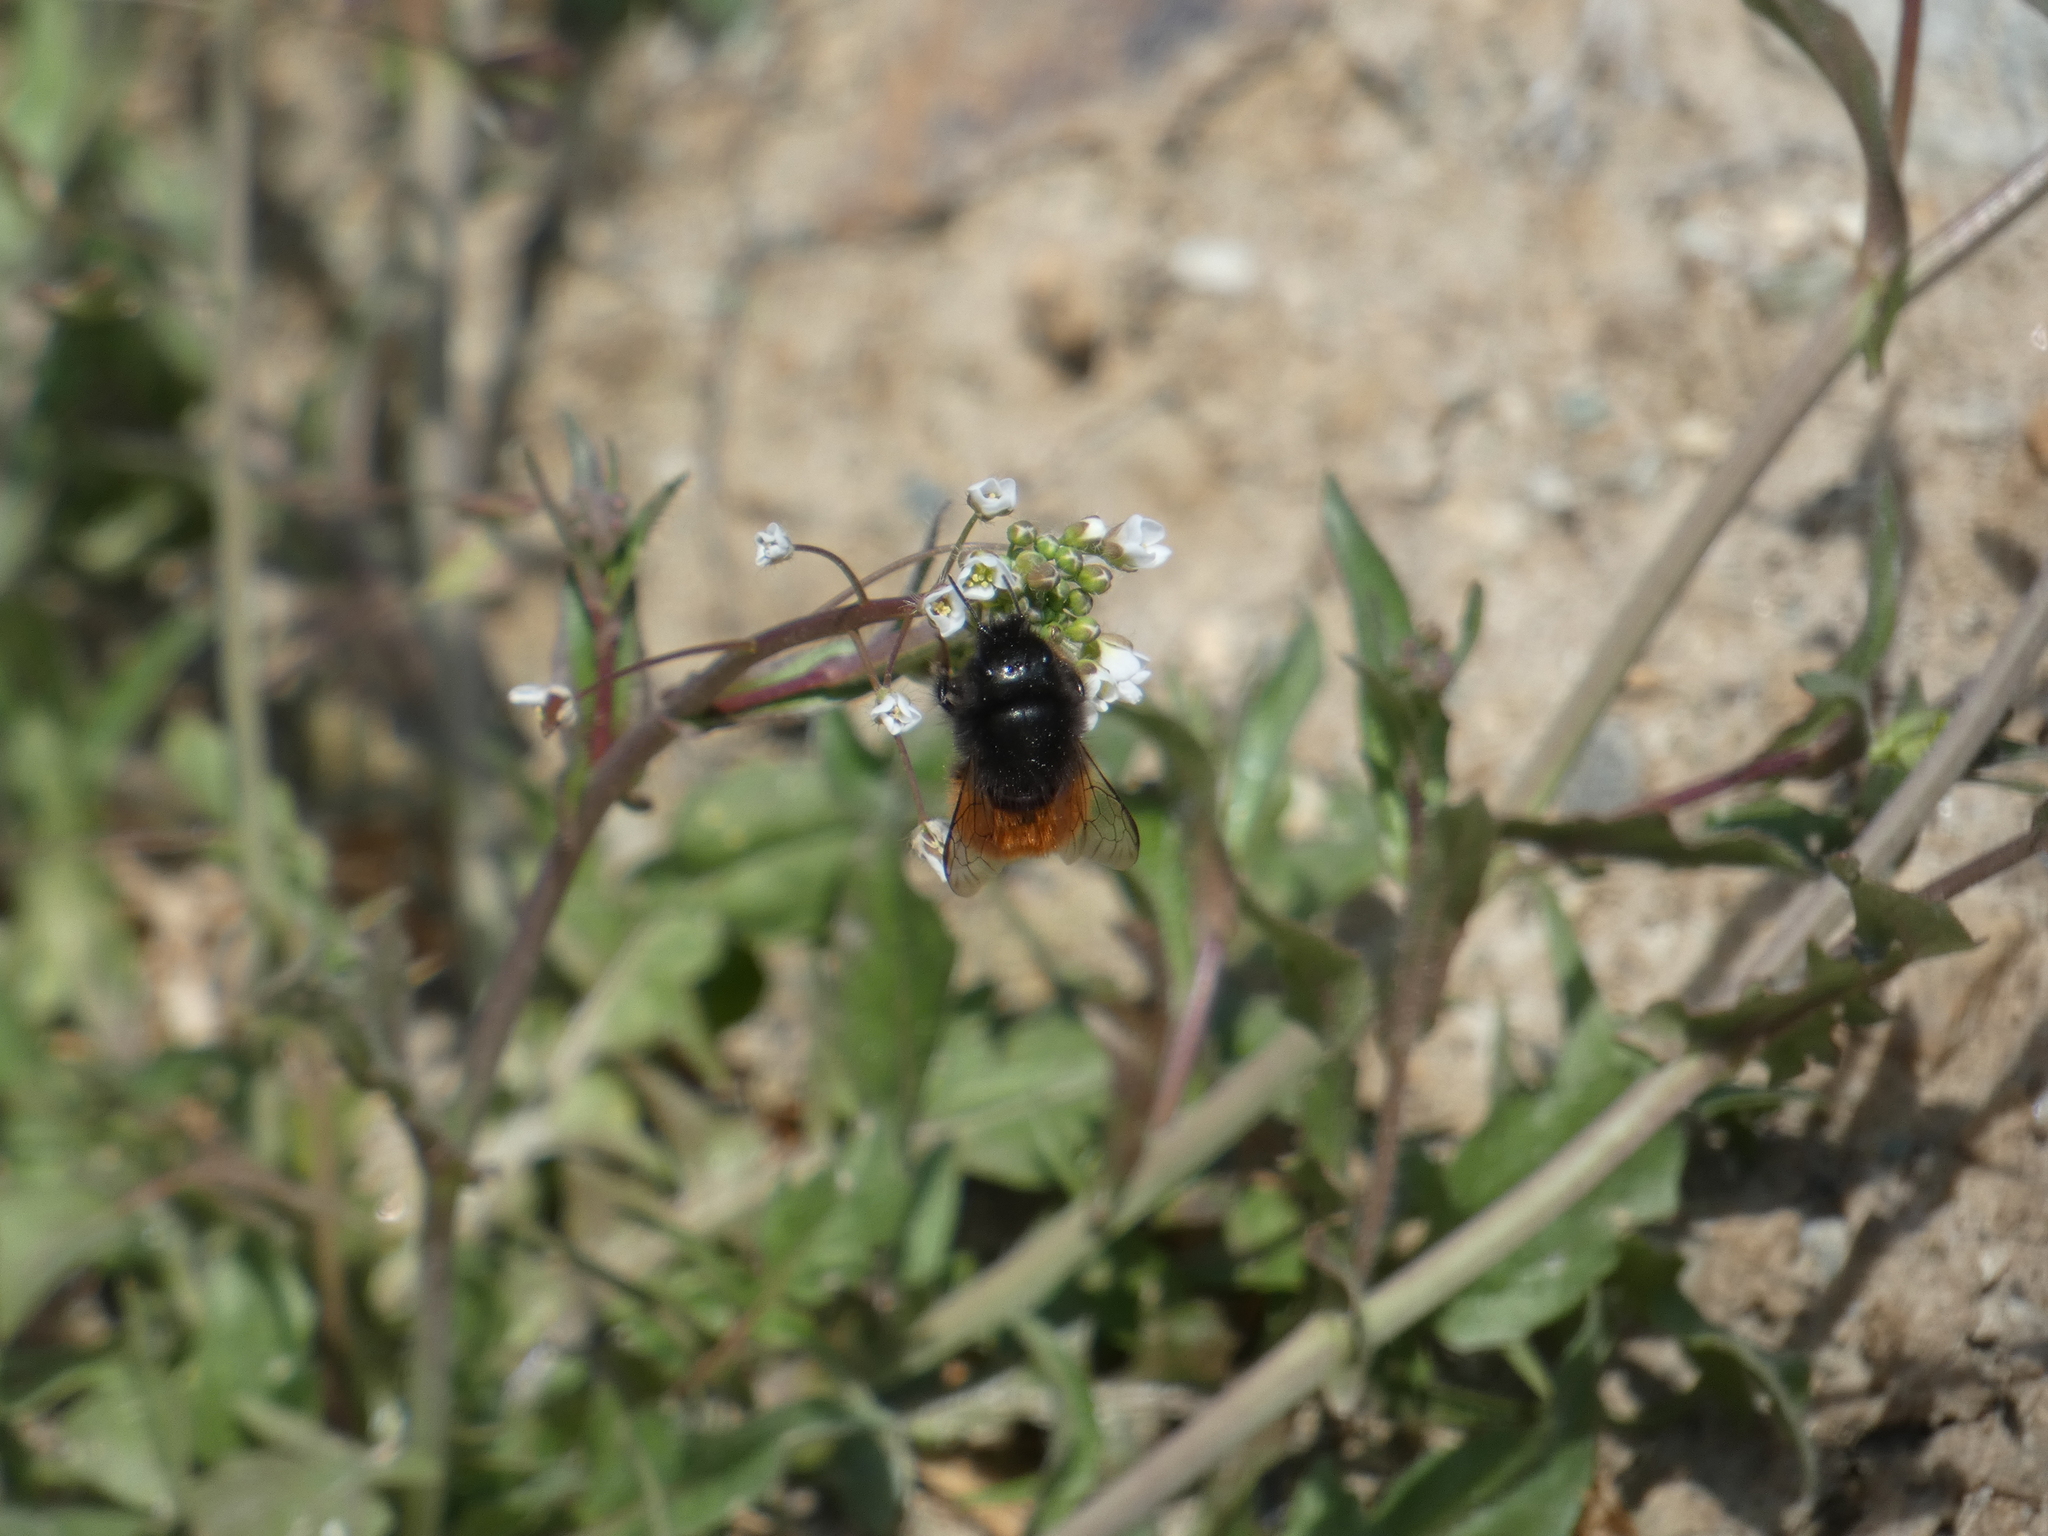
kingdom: Animalia
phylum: Arthropoda
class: Insecta
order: Hymenoptera
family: Megachilidae
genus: Osmia
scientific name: Osmia cornuta
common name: Mason bee
